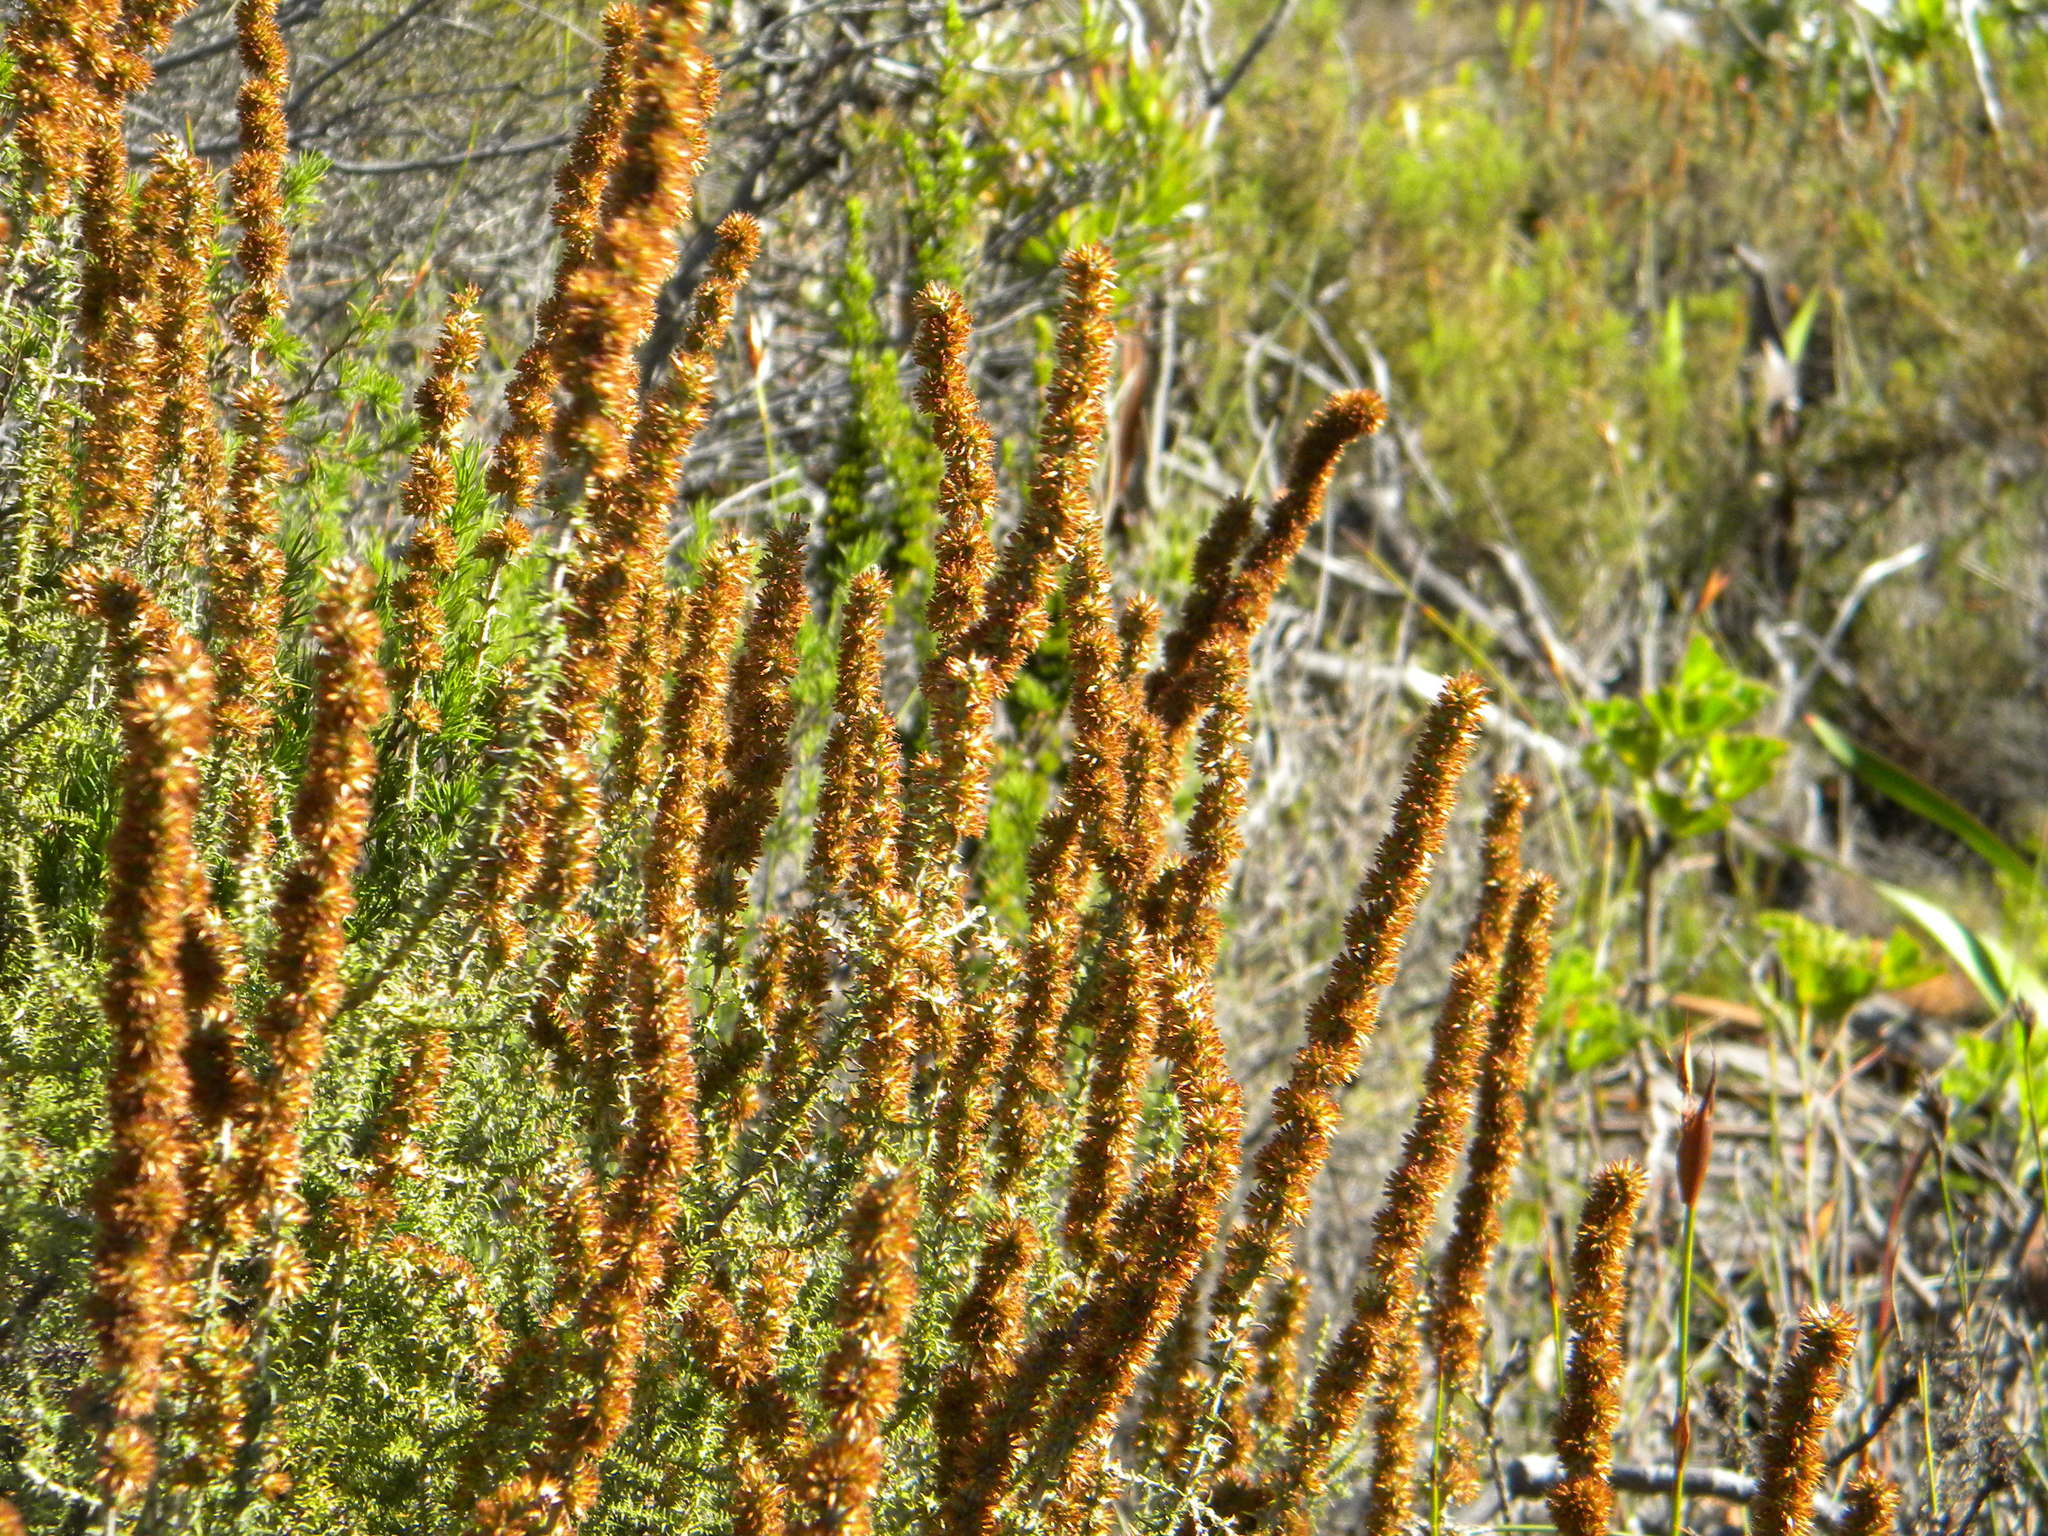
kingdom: Plantae
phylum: Tracheophyta
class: Magnoliopsida
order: Asterales
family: Asteraceae
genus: Seriphium
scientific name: Seriphium cinereum
